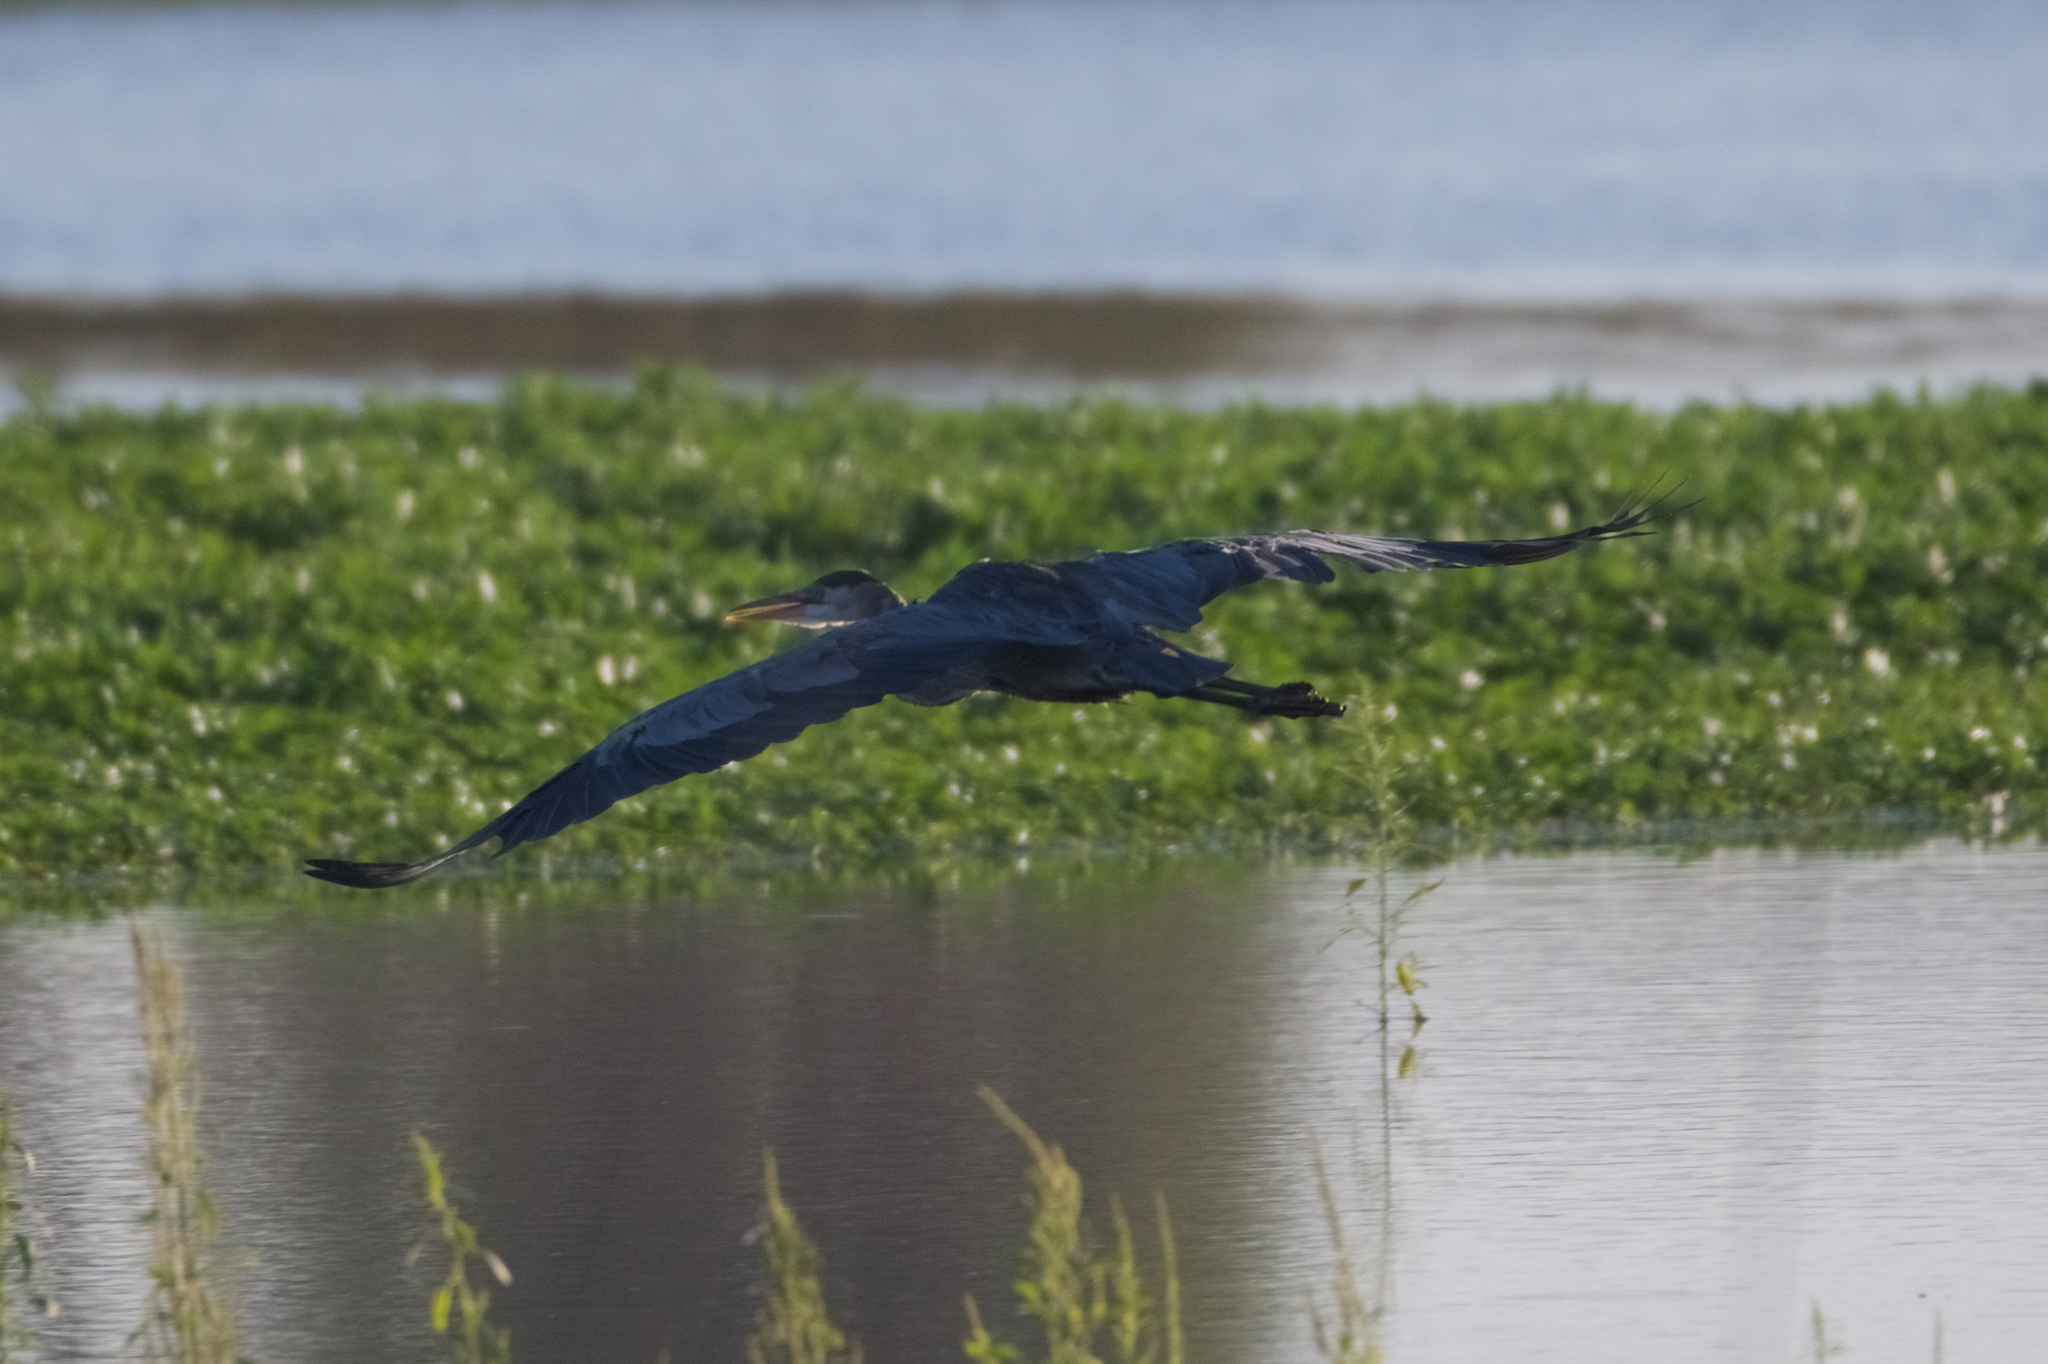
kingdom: Animalia
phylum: Chordata
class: Aves
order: Pelecaniformes
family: Ardeidae
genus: Ardea
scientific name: Ardea herodias
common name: Great blue heron
